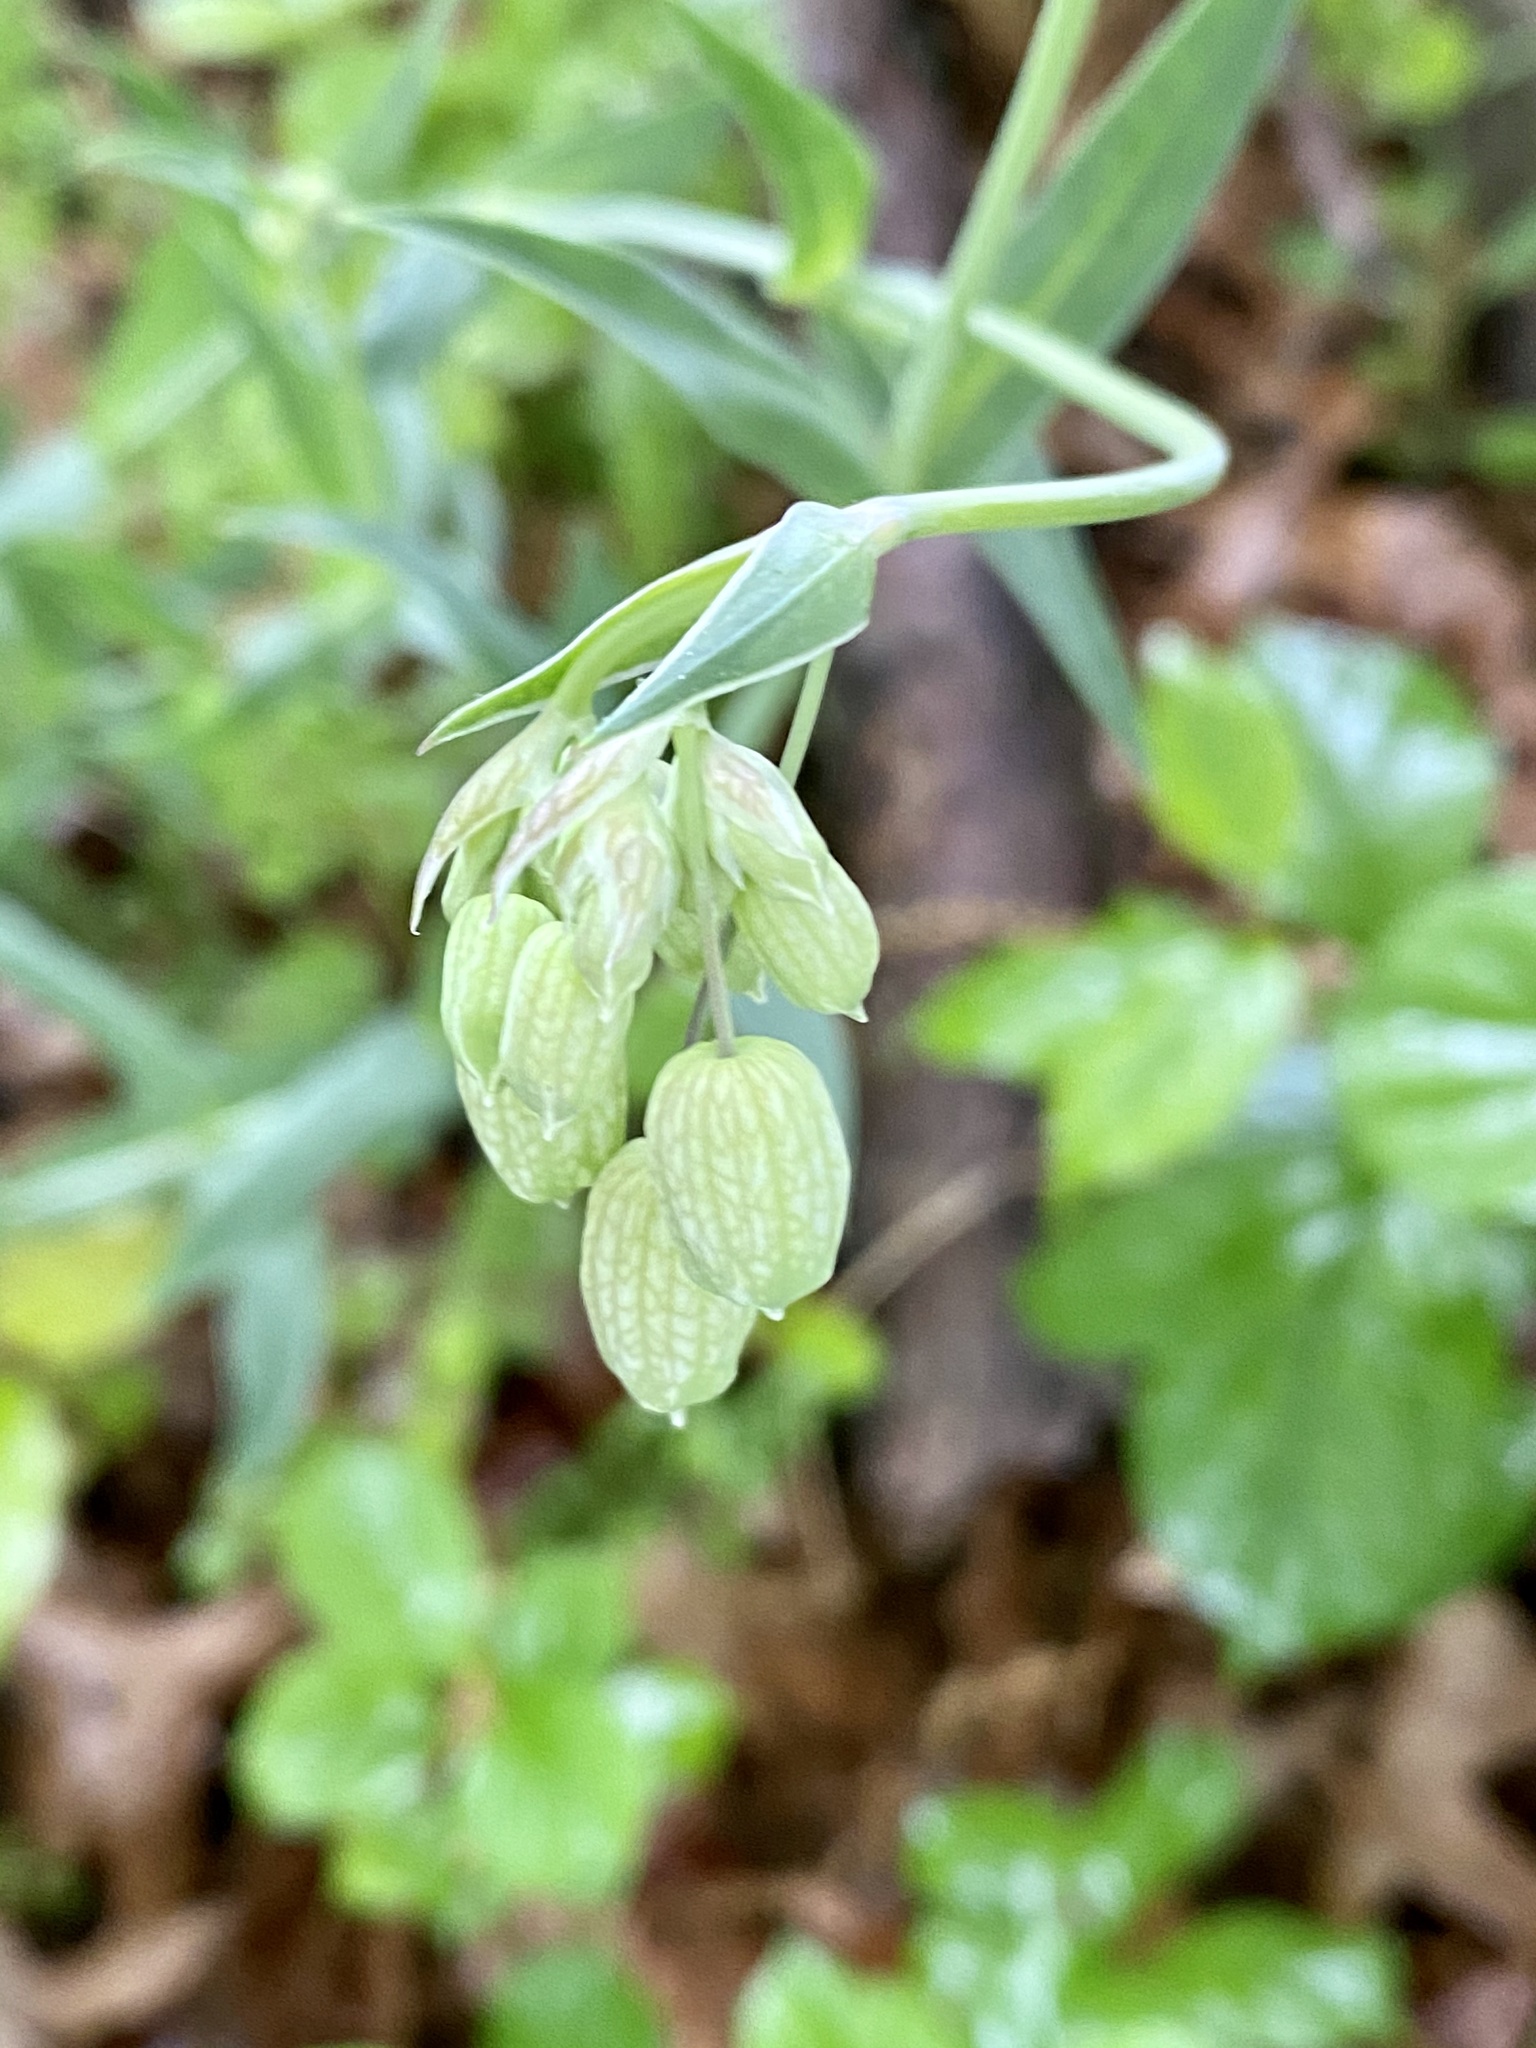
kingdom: Plantae
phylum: Tracheophyta
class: Magnoliopsida
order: Caryophyllales
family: Caryophyllaceae
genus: Silene
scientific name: Silene vulgaris
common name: Bladder campion
